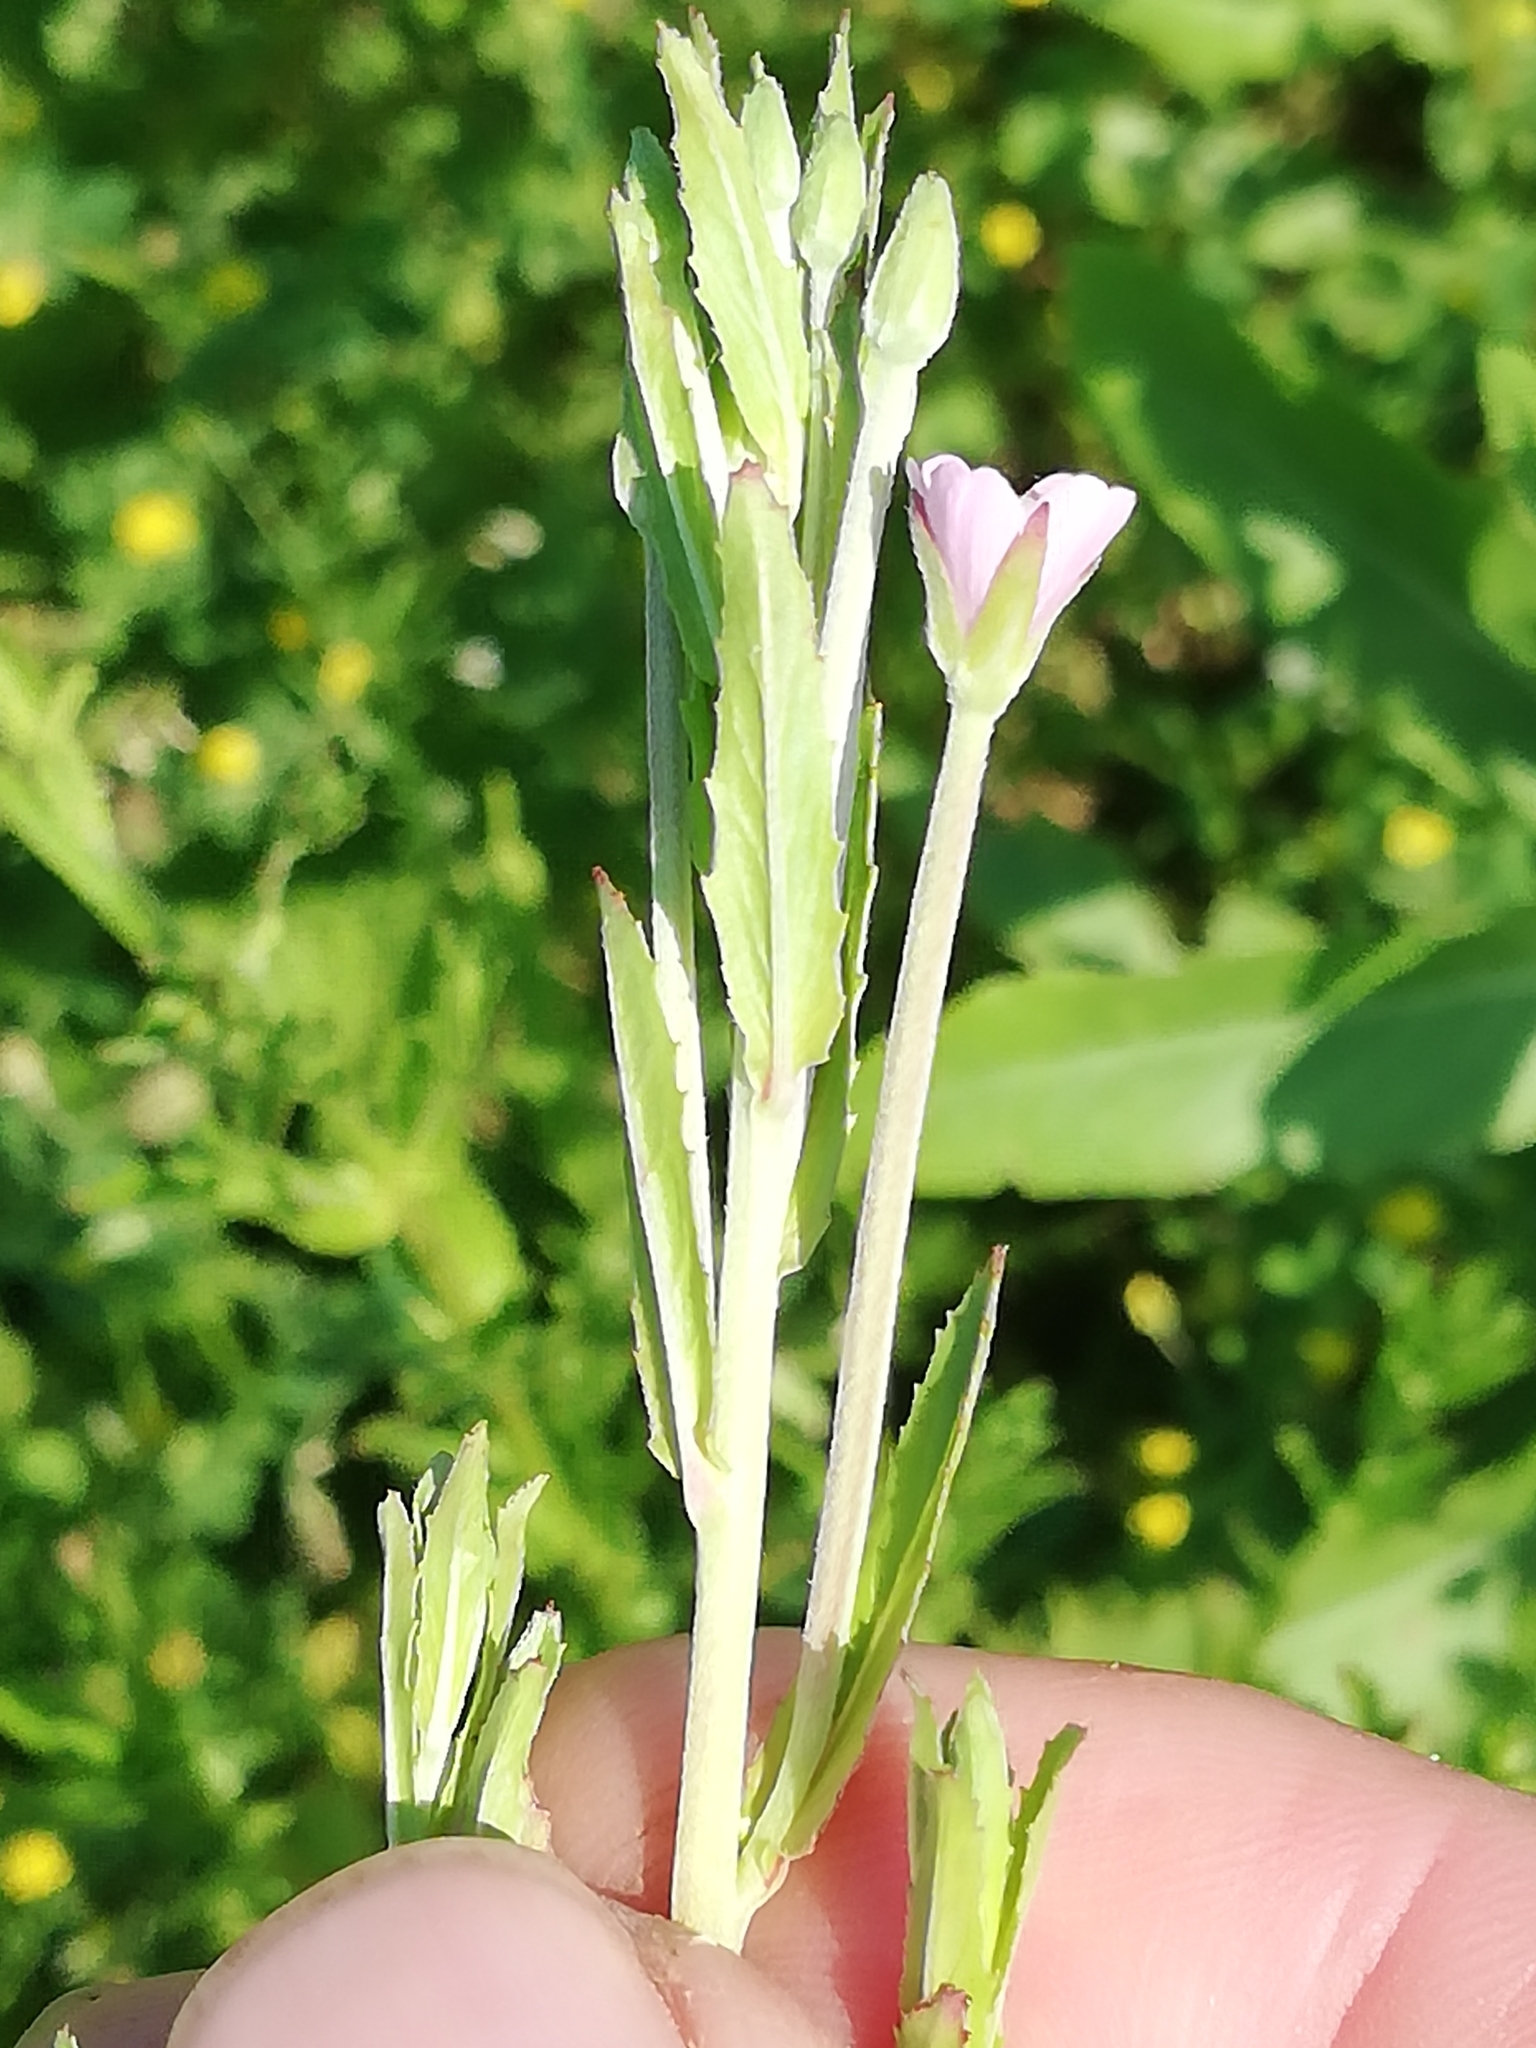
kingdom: Plantae
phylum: Tracheophyta
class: Magnoliopsida
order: Myrtales
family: Onagraceae
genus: Epilobium
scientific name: Epilobium lamyi
